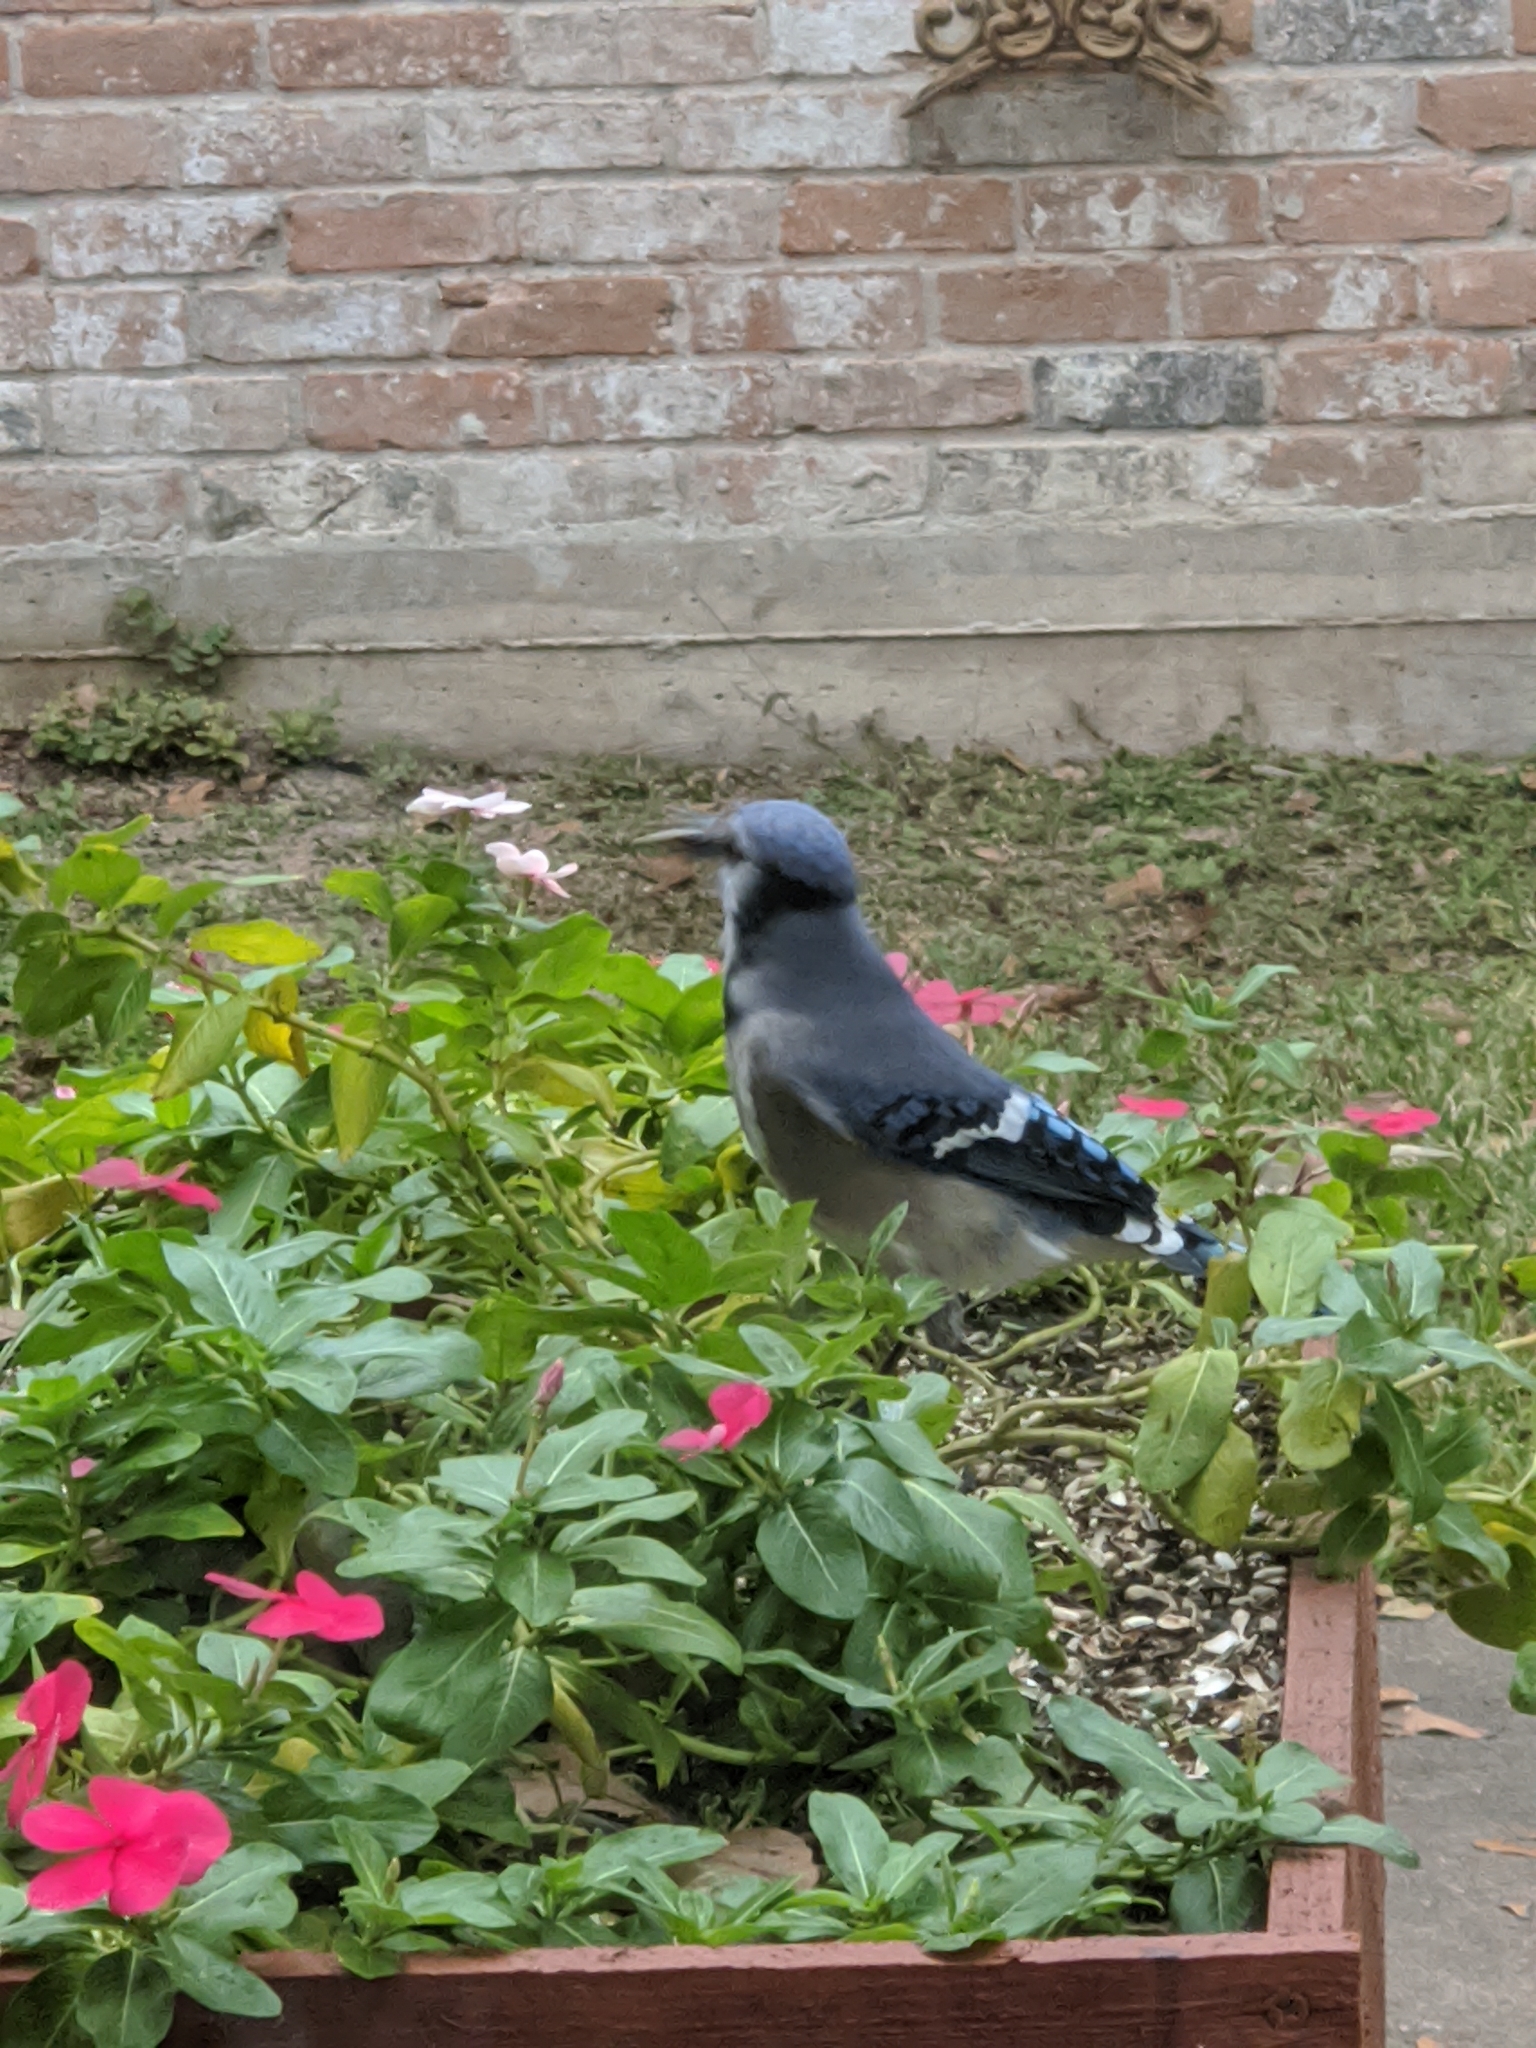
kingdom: Animalia
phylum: Chordata
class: Aves
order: Passeriformes
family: Corvidae
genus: Cyanocitta
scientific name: Cyanocitta cristata
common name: Blue jay
